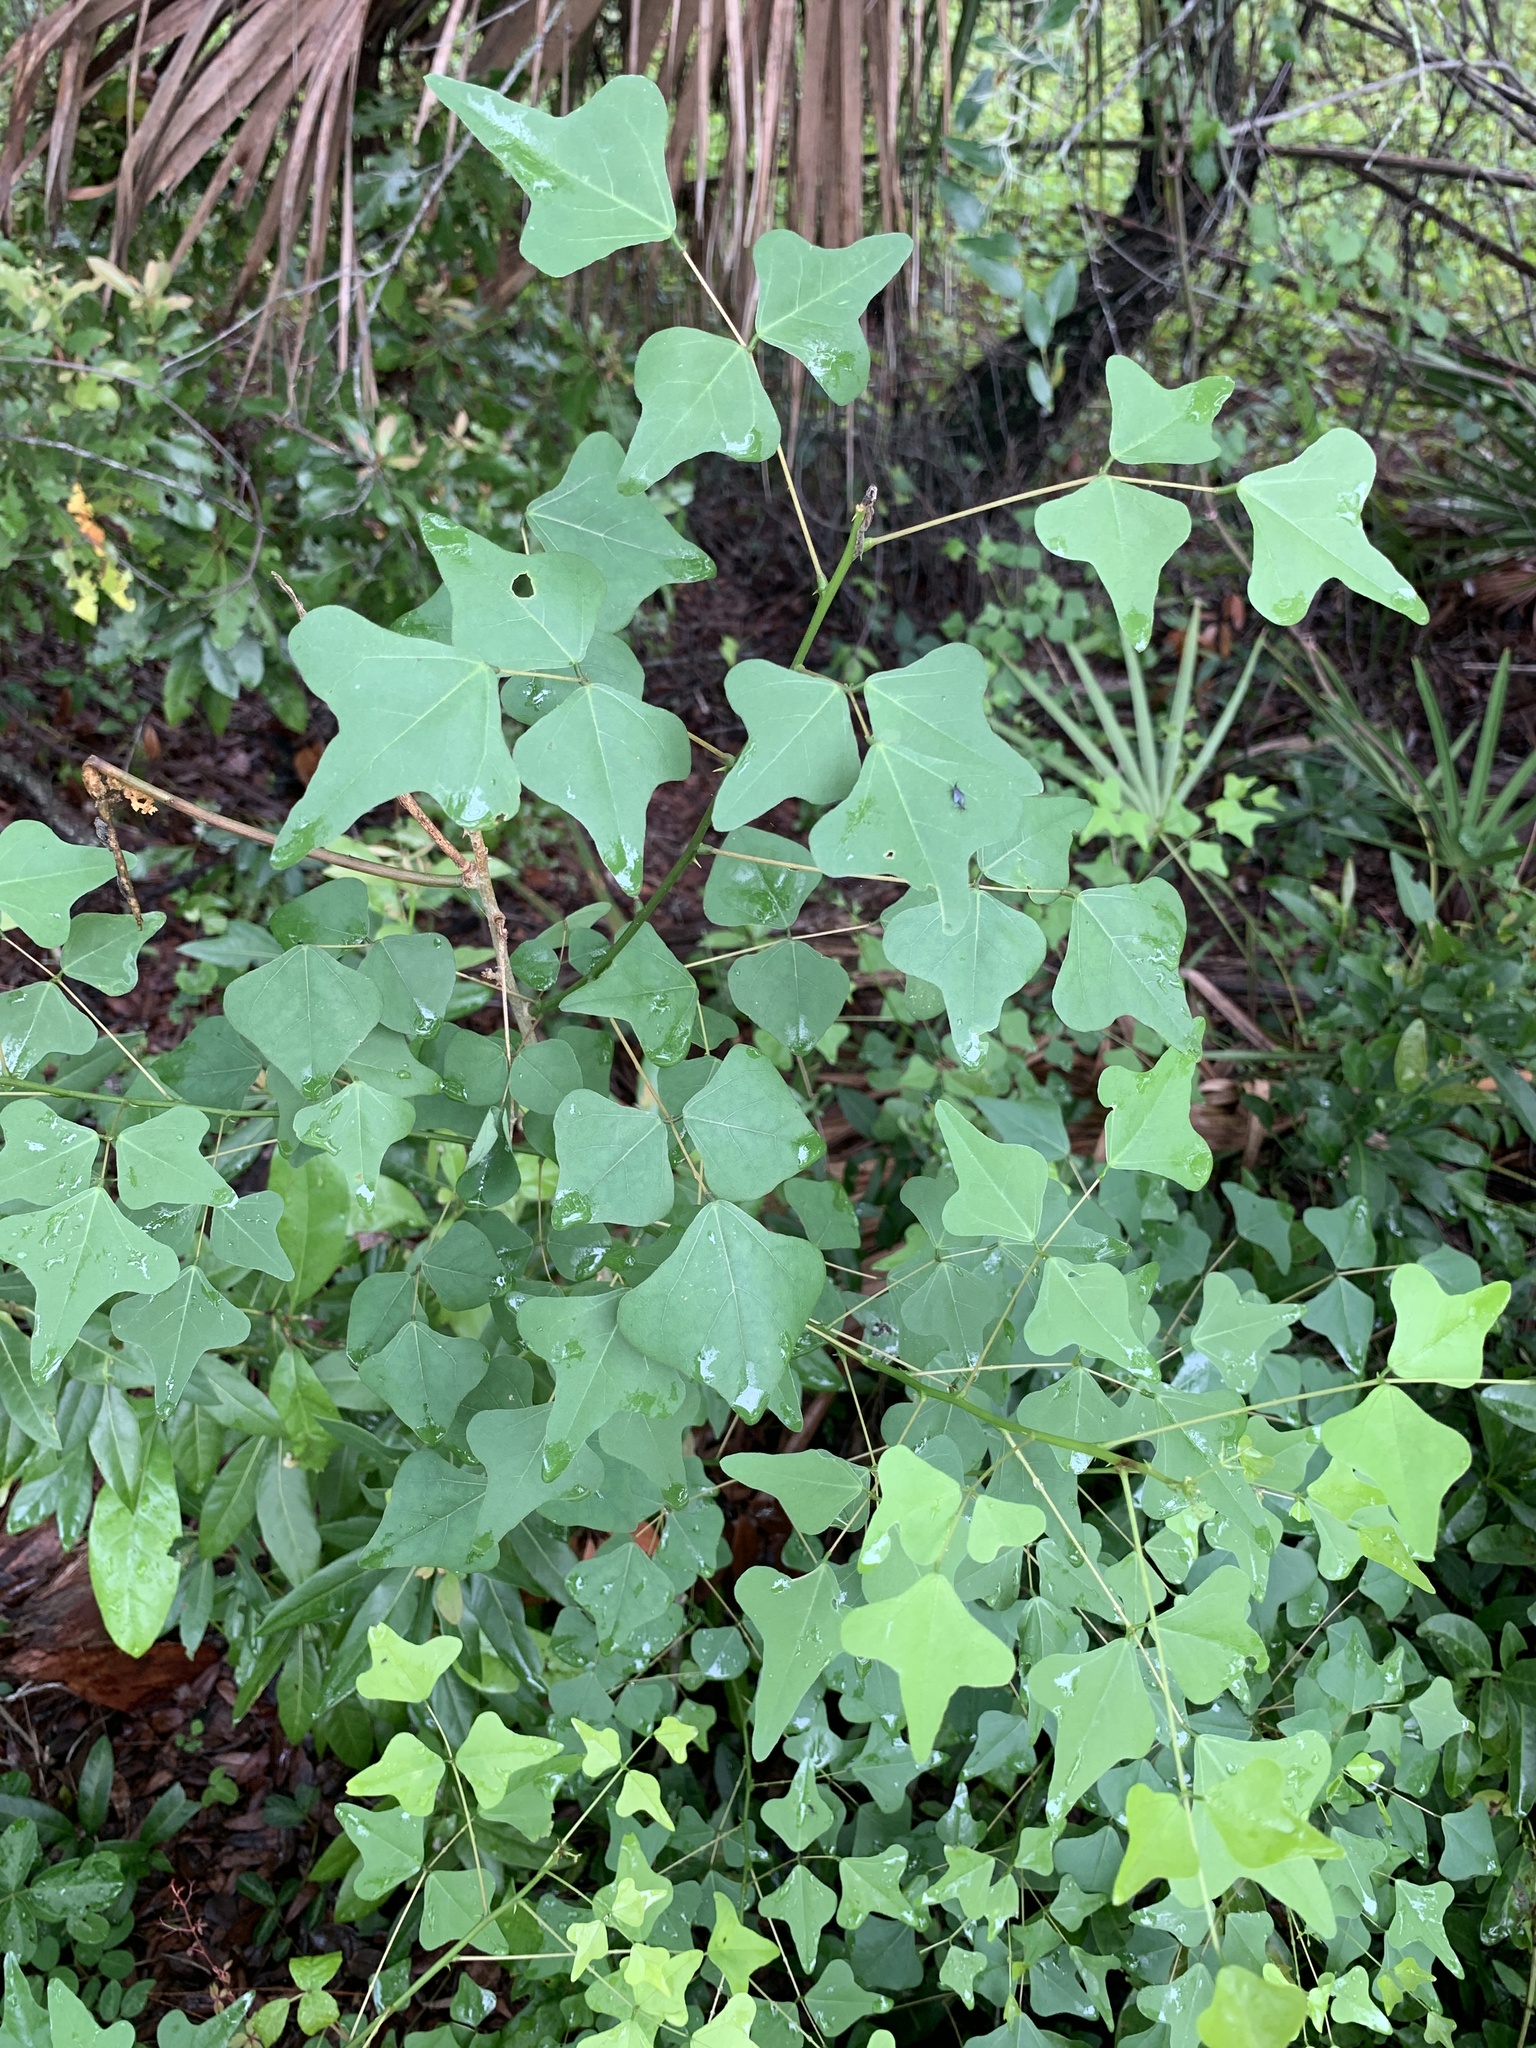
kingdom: Plantae
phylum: Tracheophyta
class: Magnoliopsida
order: Fabales
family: Fabaceae
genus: Erythrina
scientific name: Erythrina herbacea
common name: Coral-bean
